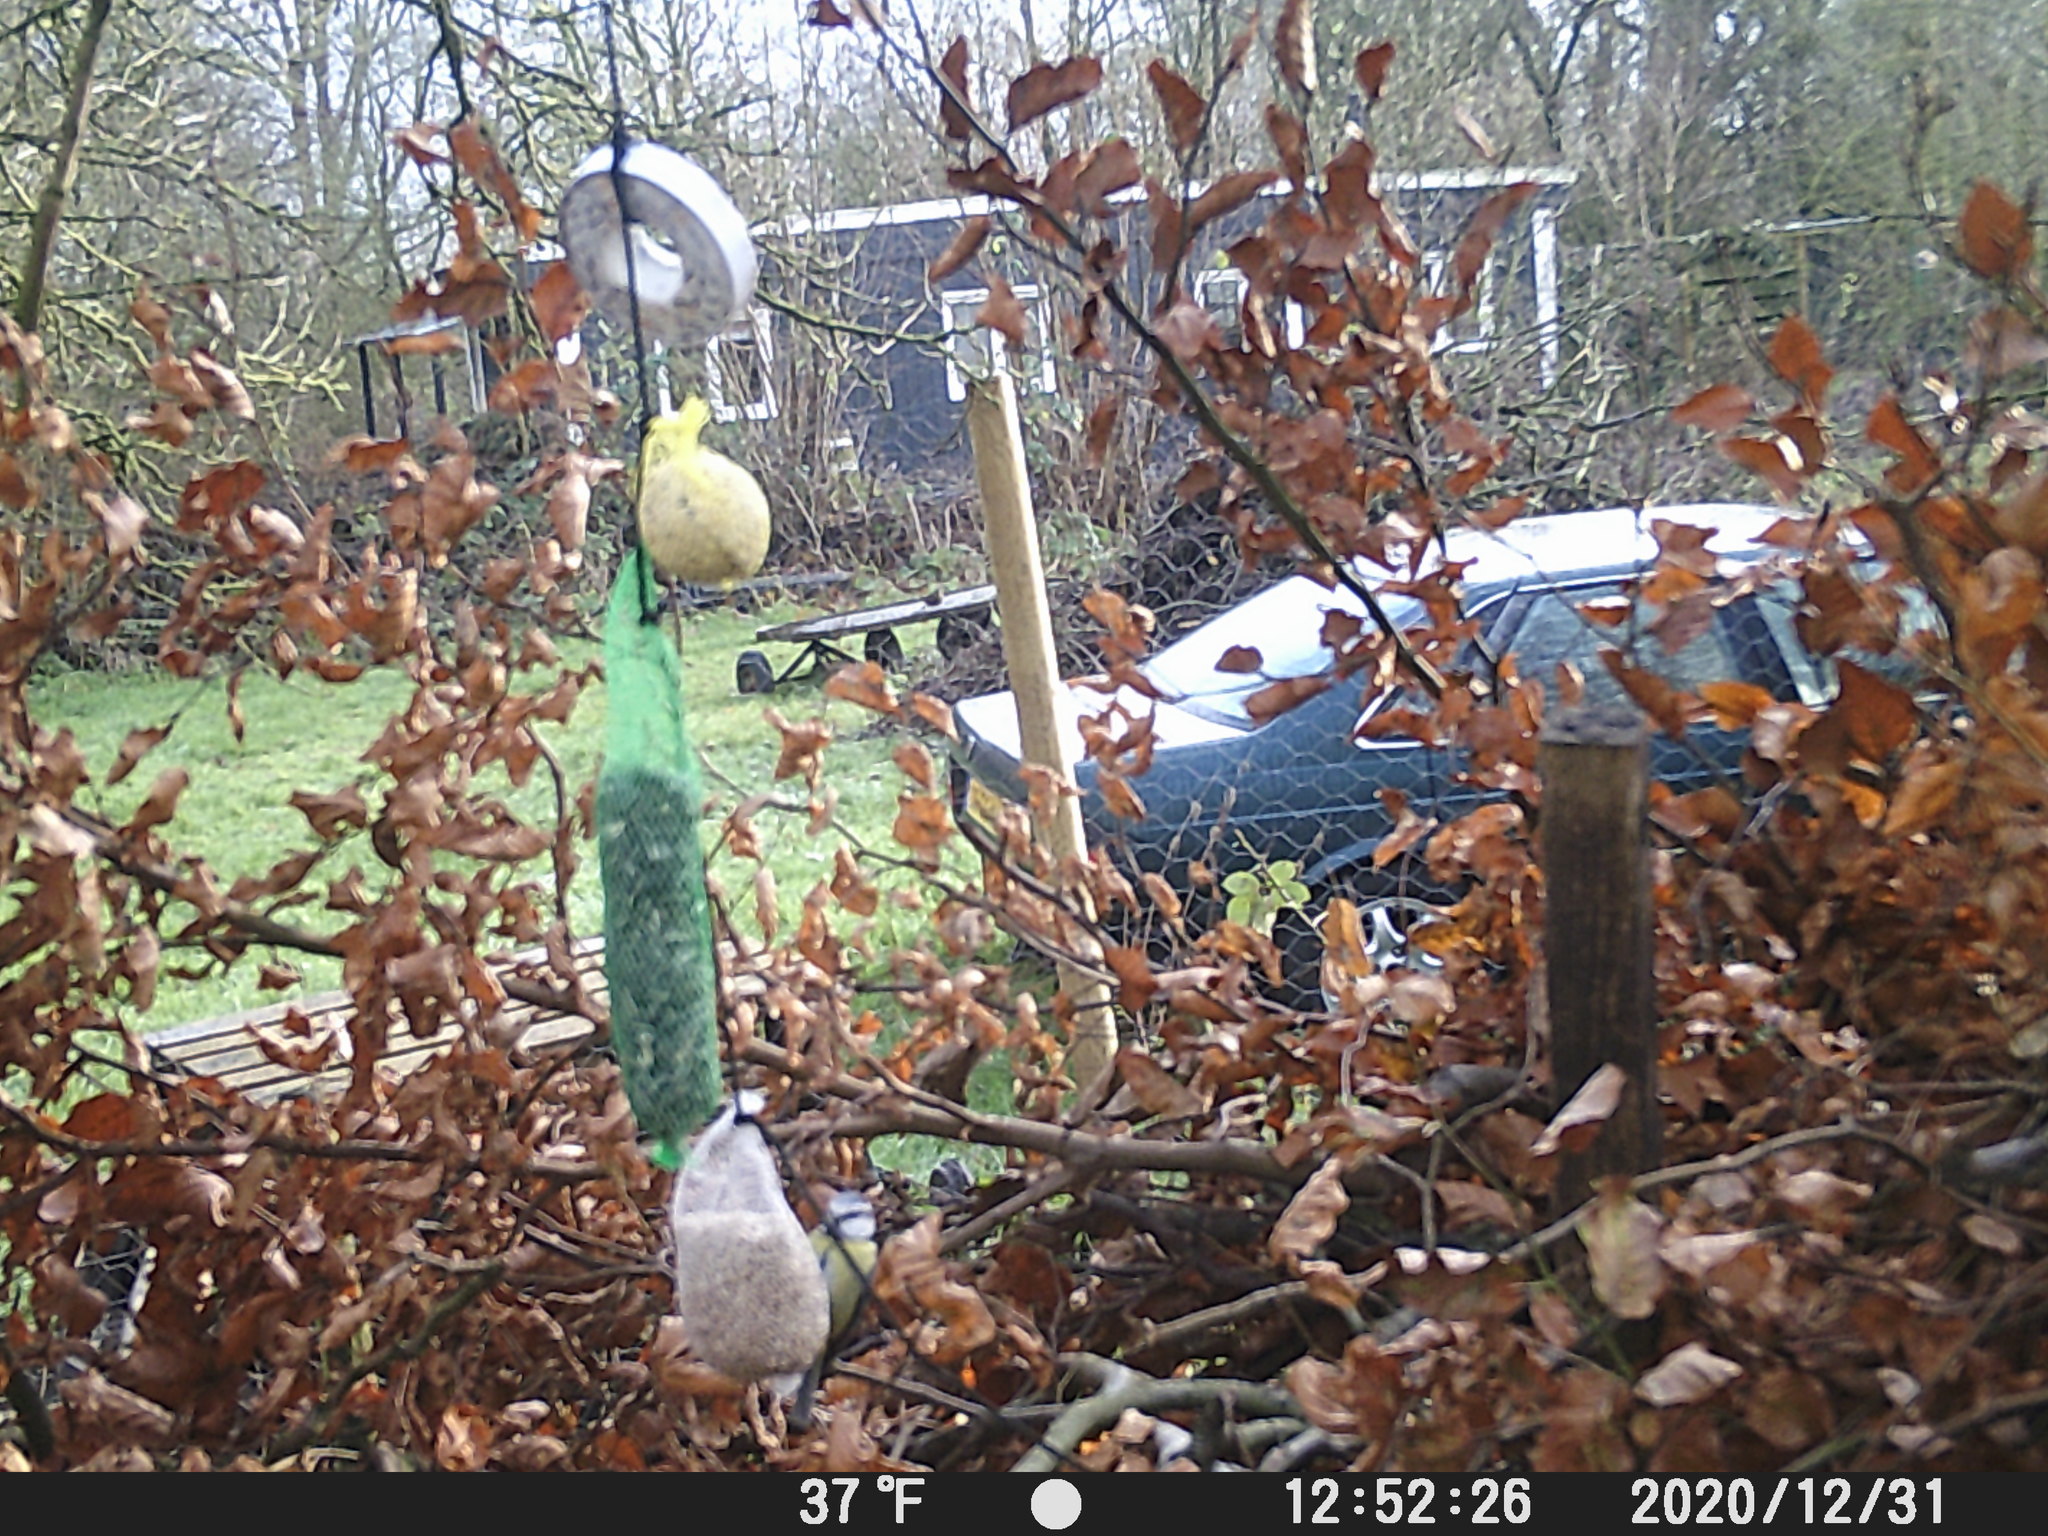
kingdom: Animalia
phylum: Chordata
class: Aves
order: Passeriformes
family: Paridae
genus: Cyanistes
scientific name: Cyanistes caeruleus
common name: Eurasian blue tit
